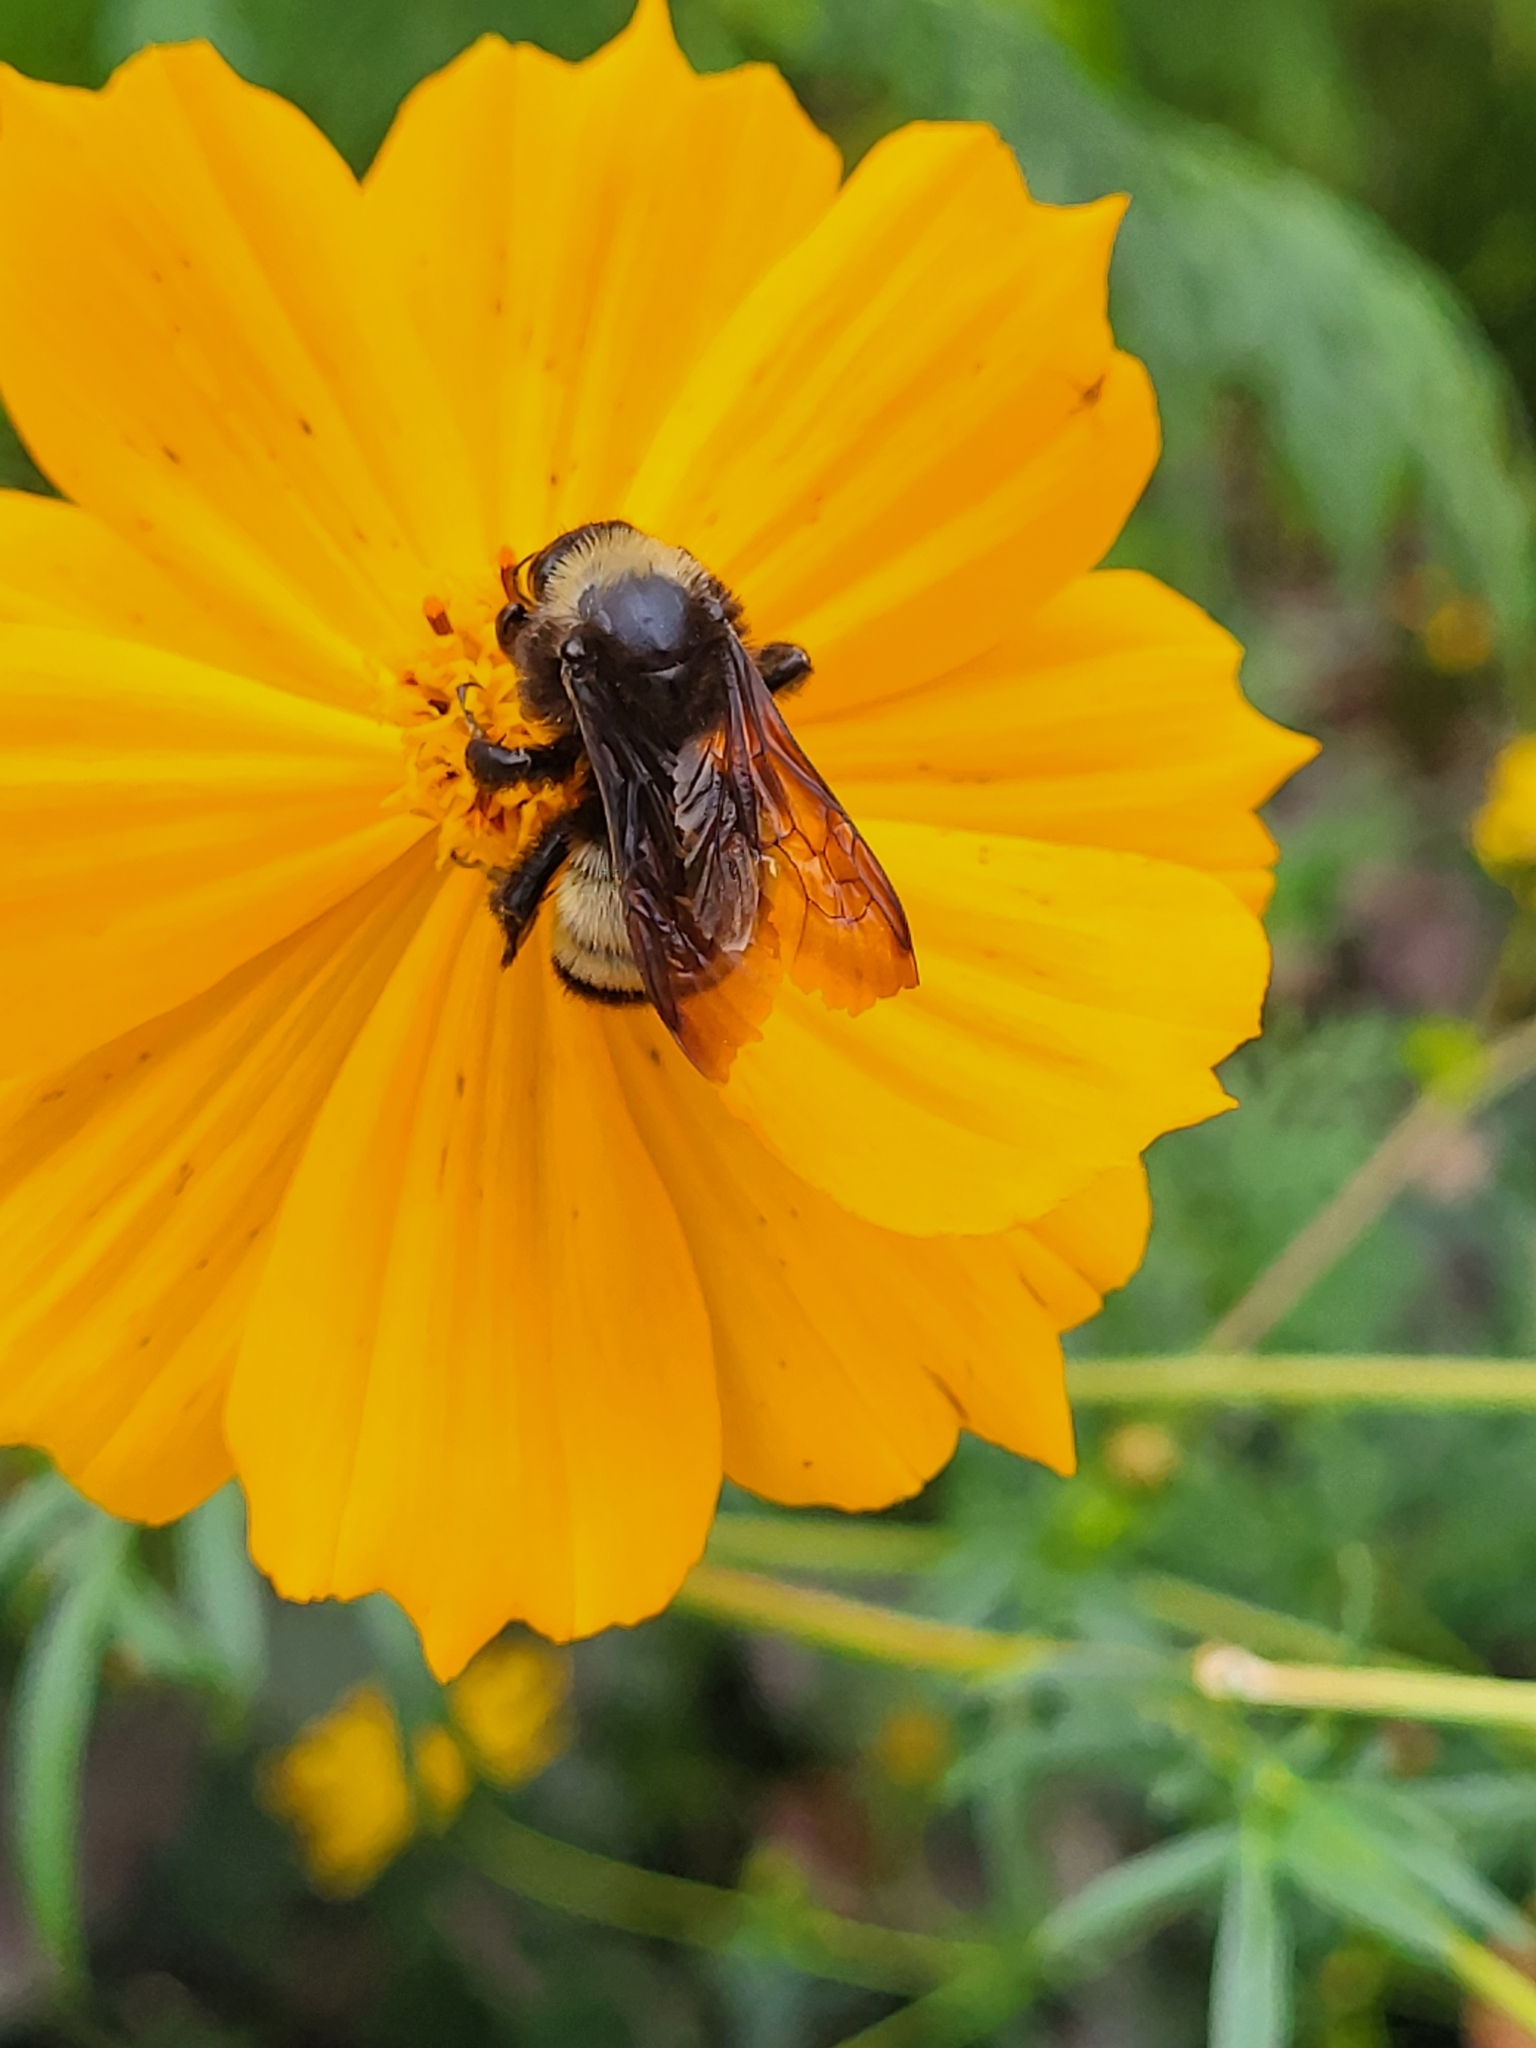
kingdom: Animalia
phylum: Arthropoda
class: Insecta
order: Hymenoptera
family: Apidae
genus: Bombus
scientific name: Bombus pensylvanicus
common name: Bumble bee
